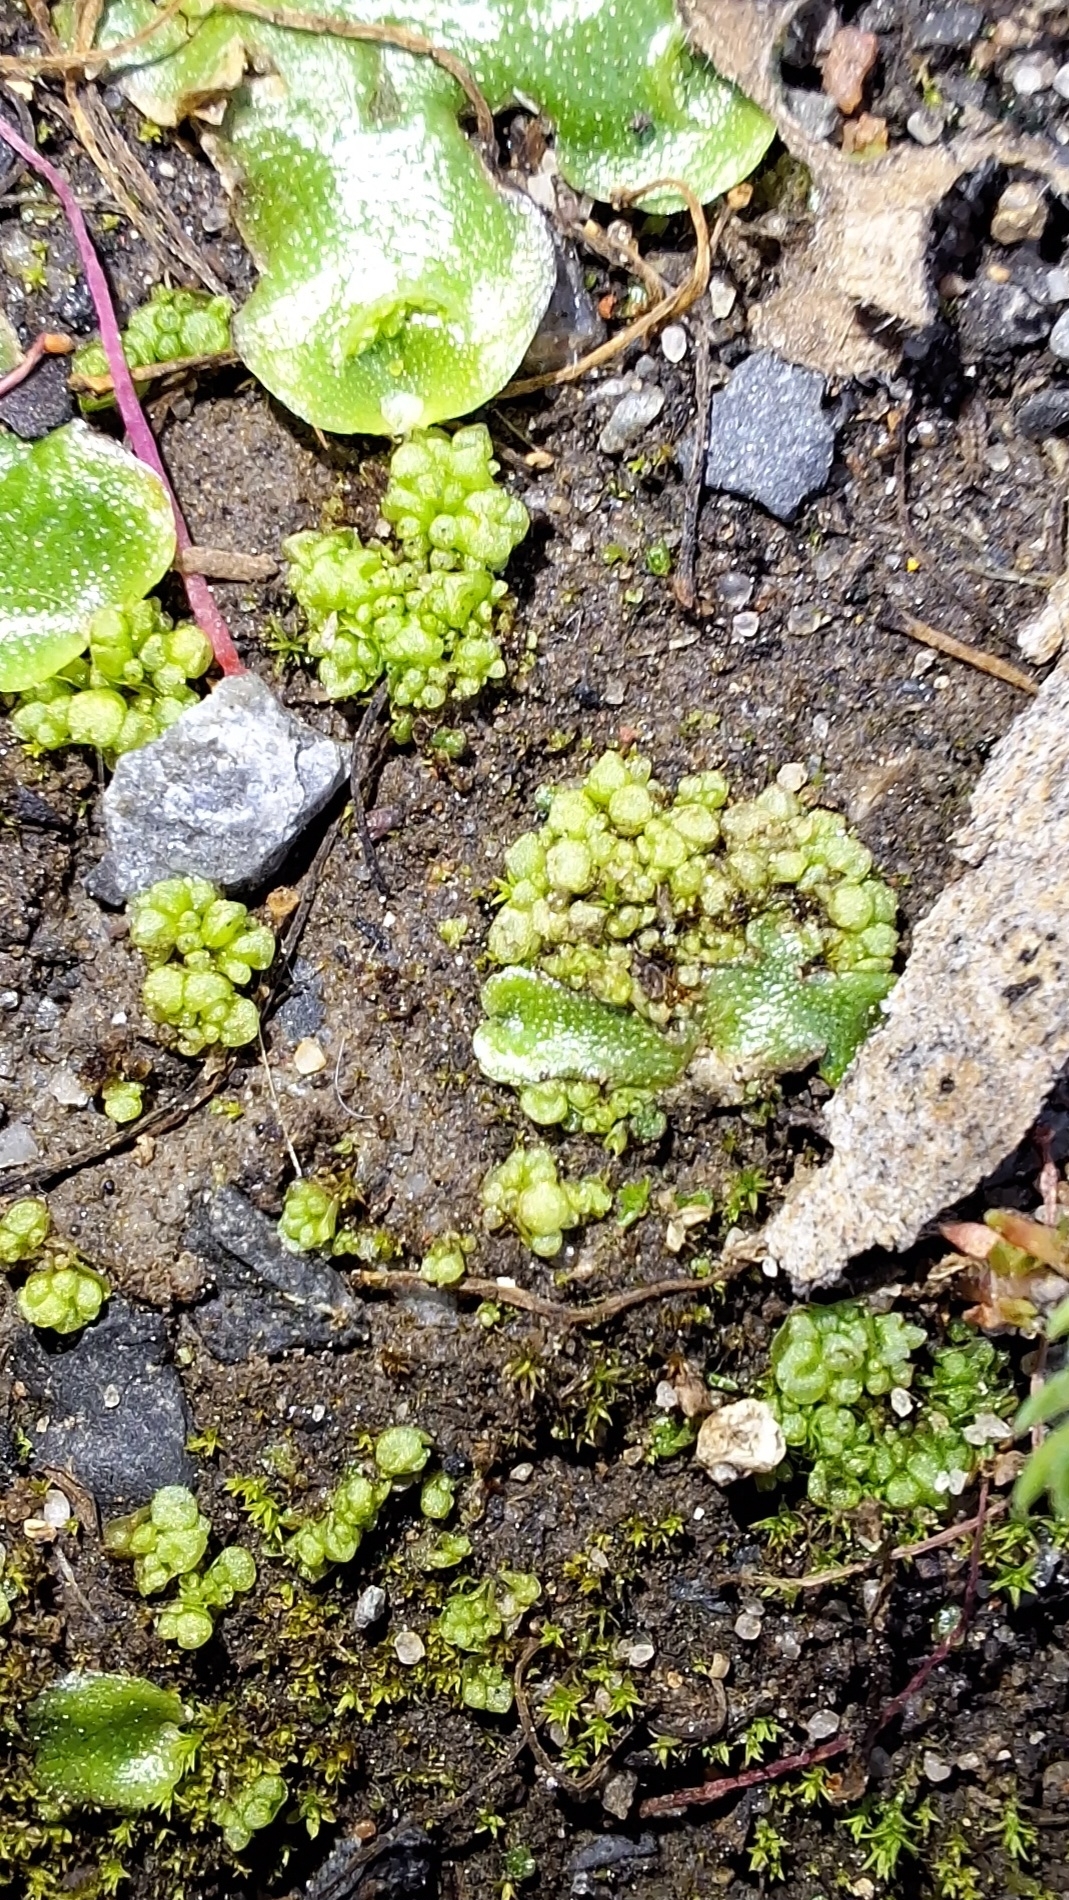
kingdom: Plantae
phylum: Marchantiophyta
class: Marchantiopsida
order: Sphaerocarpales
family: Sphaerocarpaceae
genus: Sphaerocarpos
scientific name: Sphaerocarpos texanus
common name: Texas balloonwort
